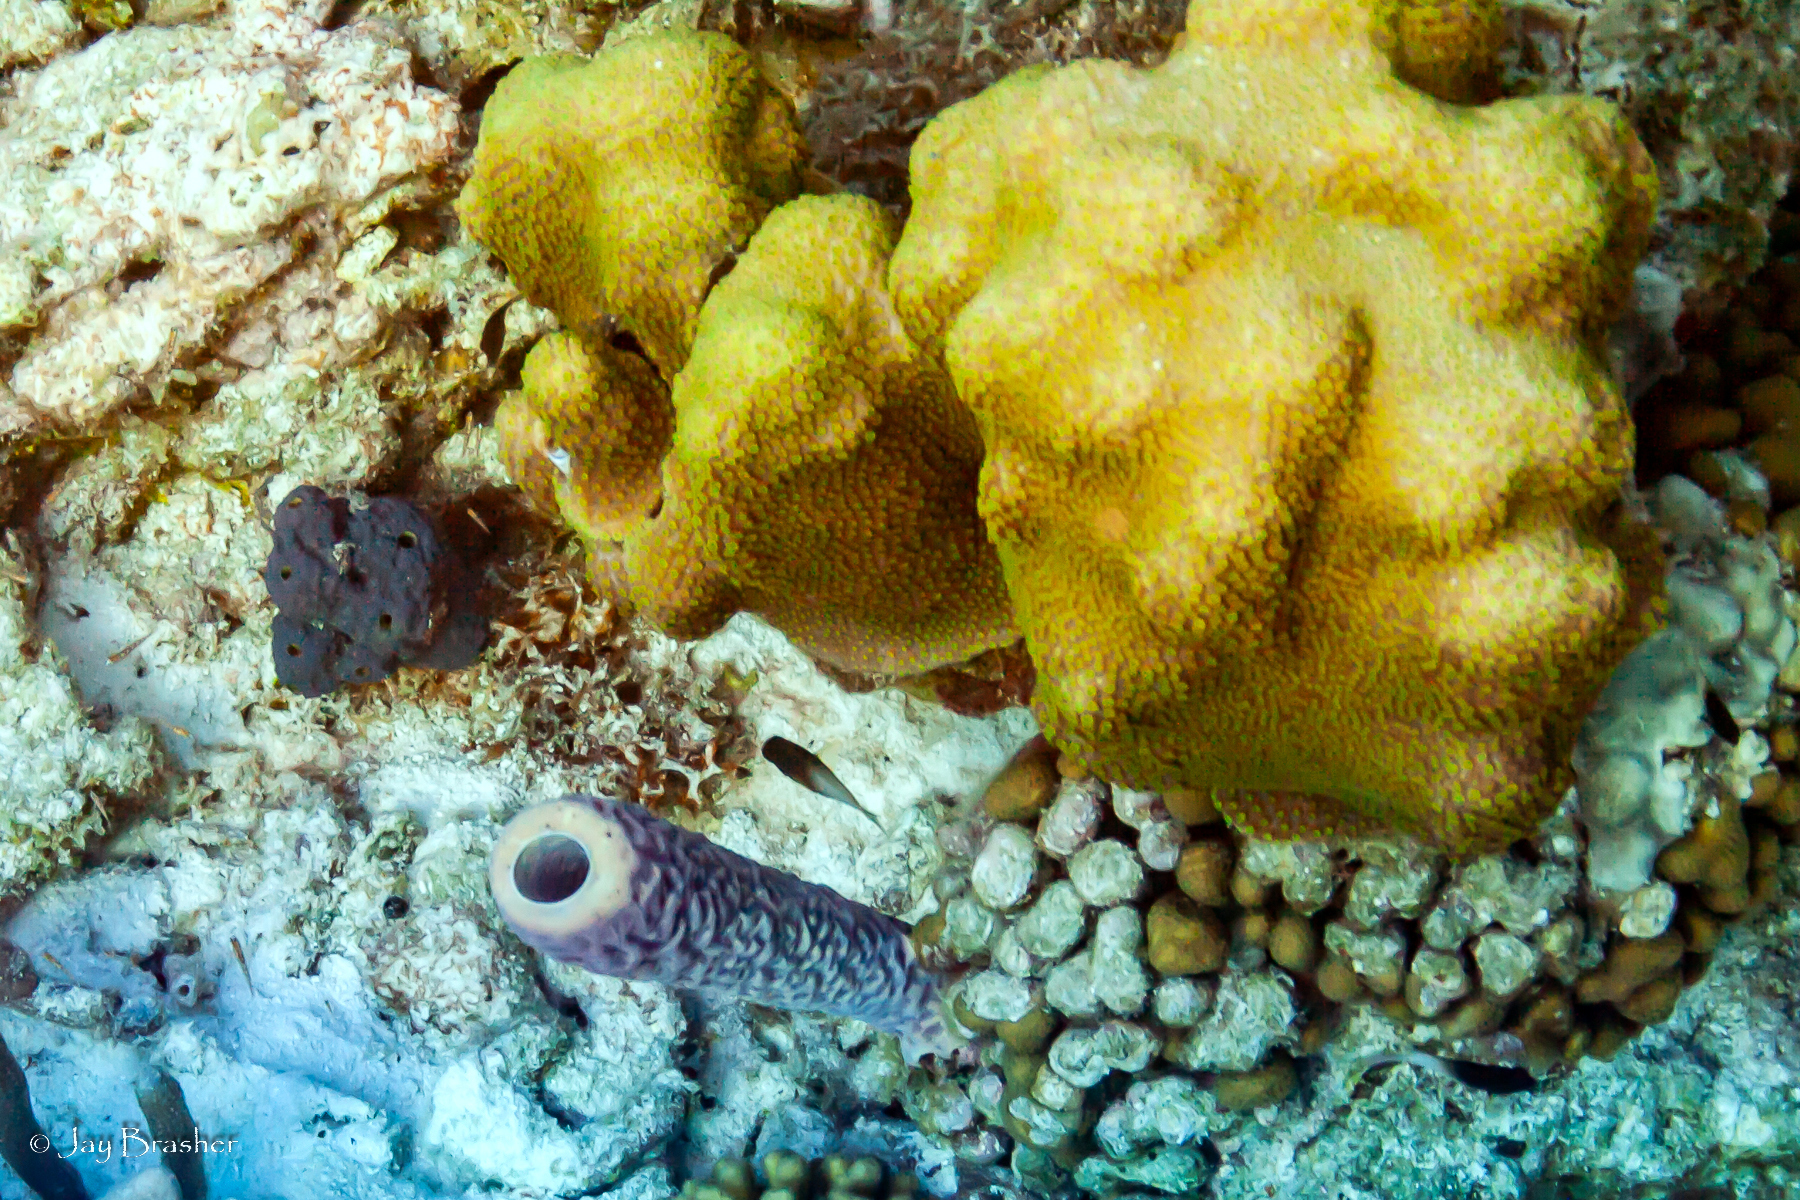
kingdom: Animalia
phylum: Cnidaria
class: Anthozoa
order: Scleractinia
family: Merulinidae
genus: Orbicella
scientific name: Orbicella faveolata
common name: Mountainous star coral
